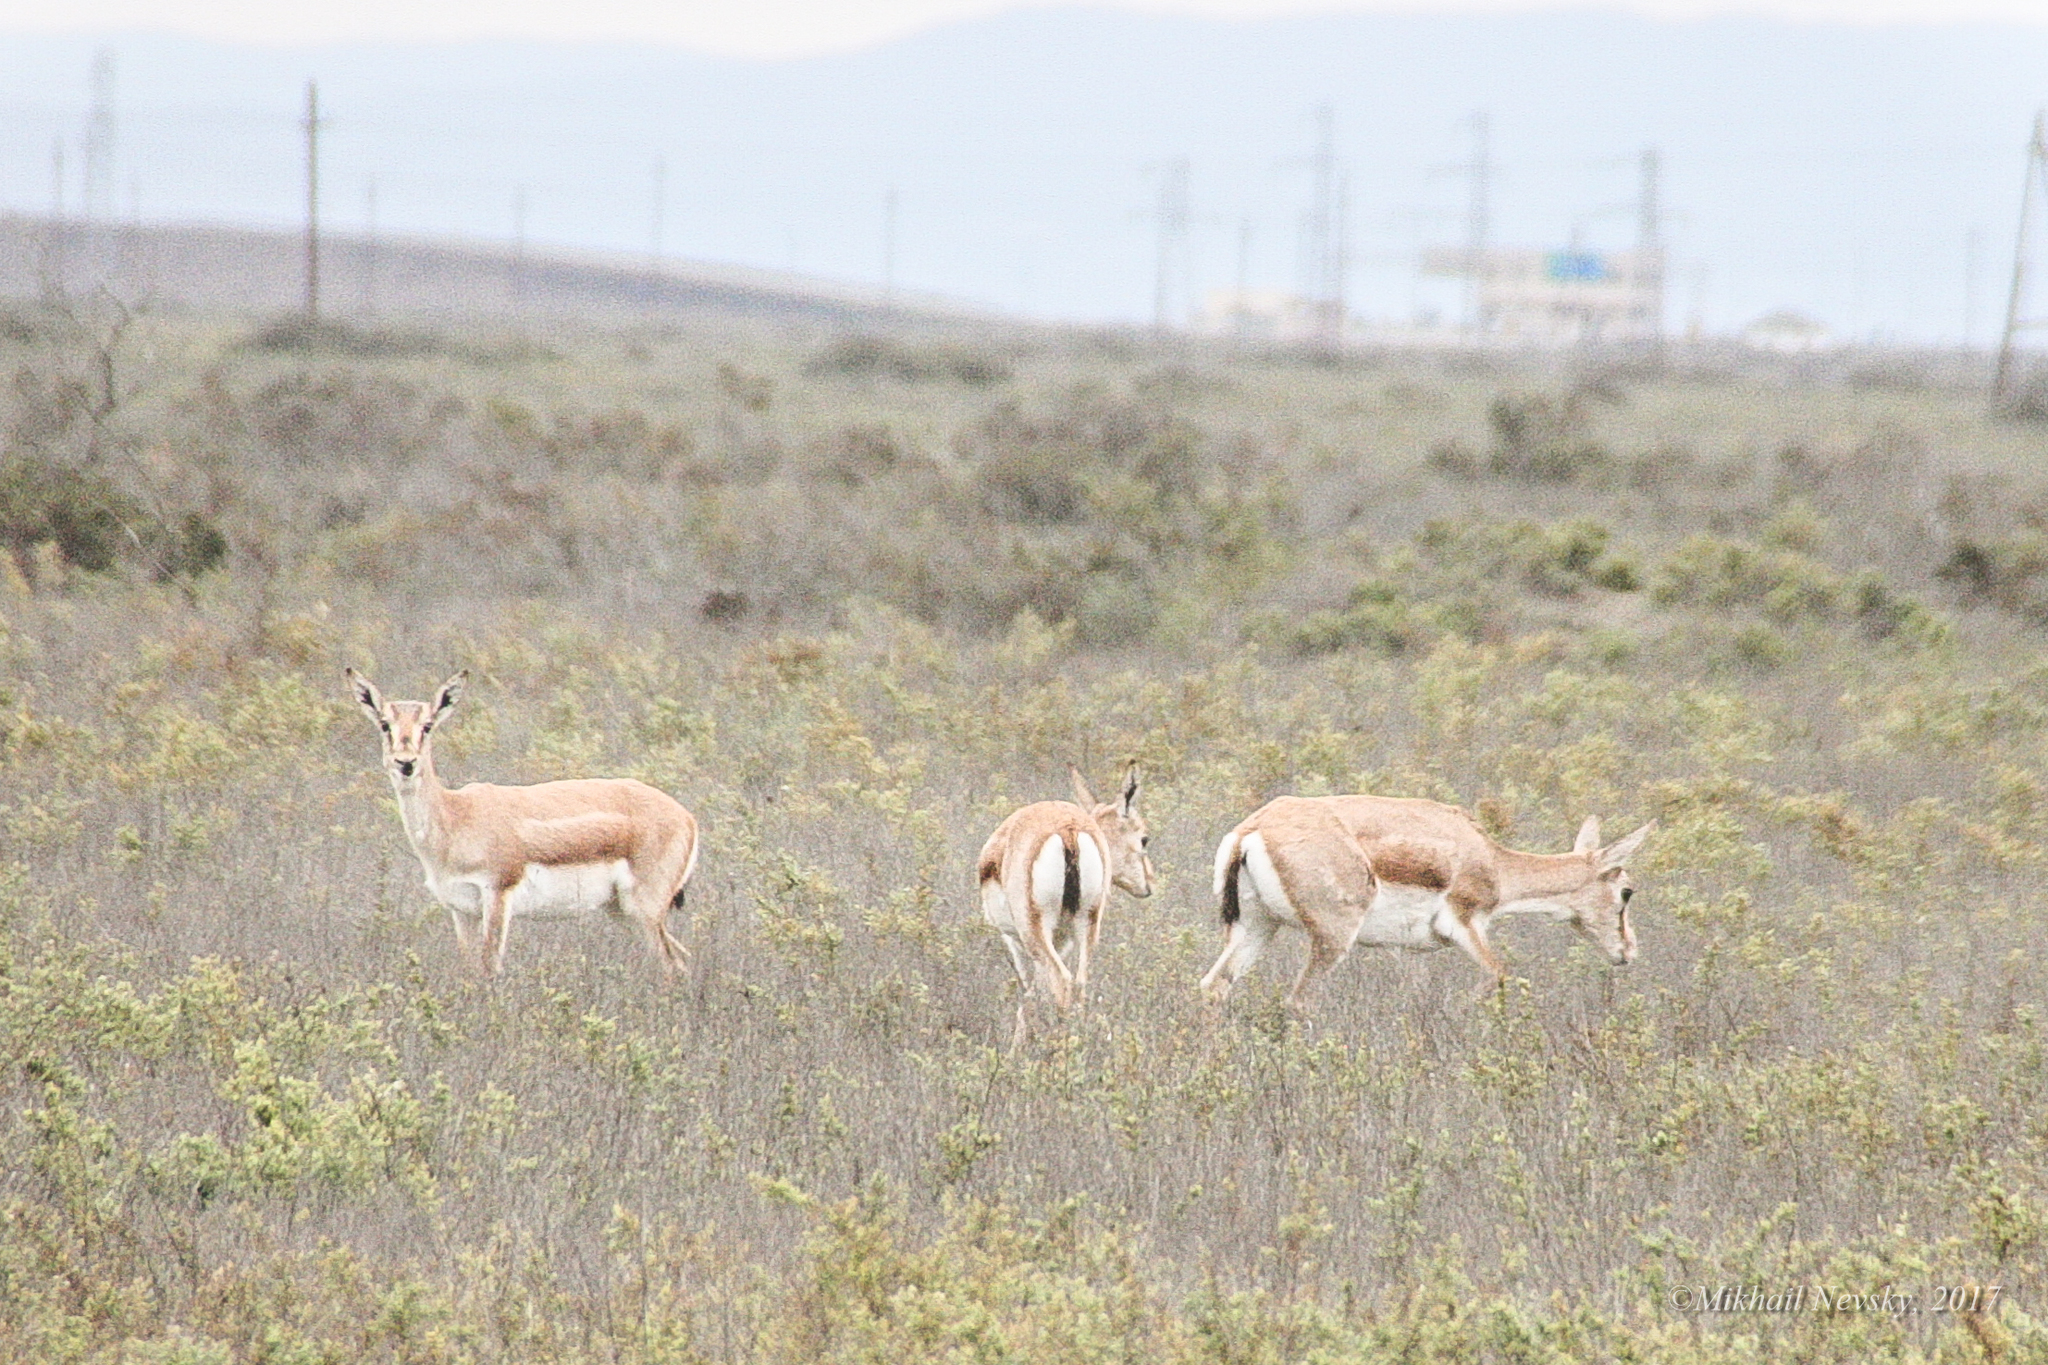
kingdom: Animalia
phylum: Chordata
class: Mammalia
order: Artiodactyla
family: Bovidae
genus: Gazella
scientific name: Gazella subgutturosa
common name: Goitered gazelle
